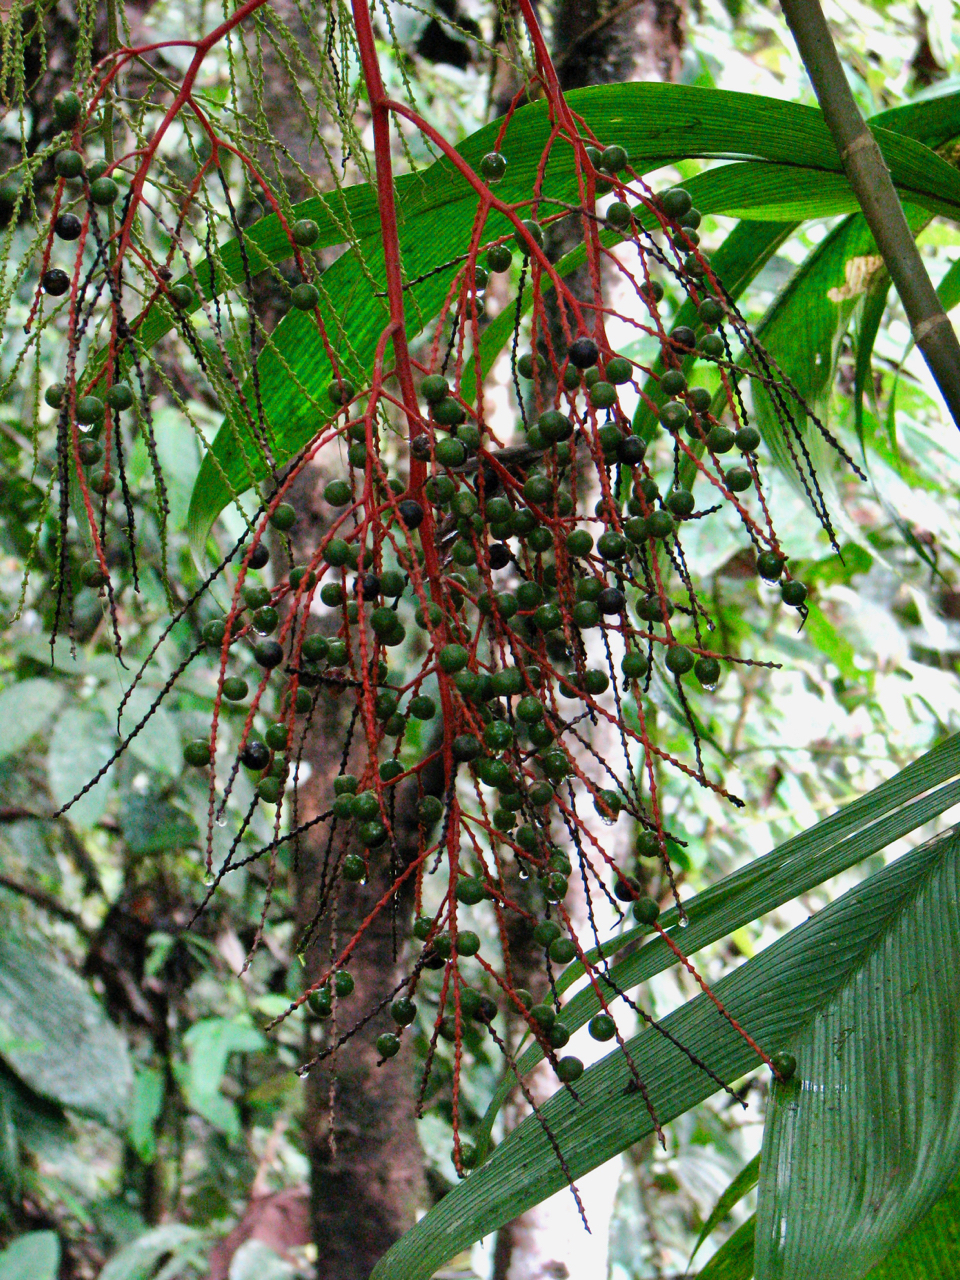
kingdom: Plantae
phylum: Tracheophyta
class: Liliopsida
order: Arecales
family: Arecaceae
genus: Geonoma
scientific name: Geonoma venosa
